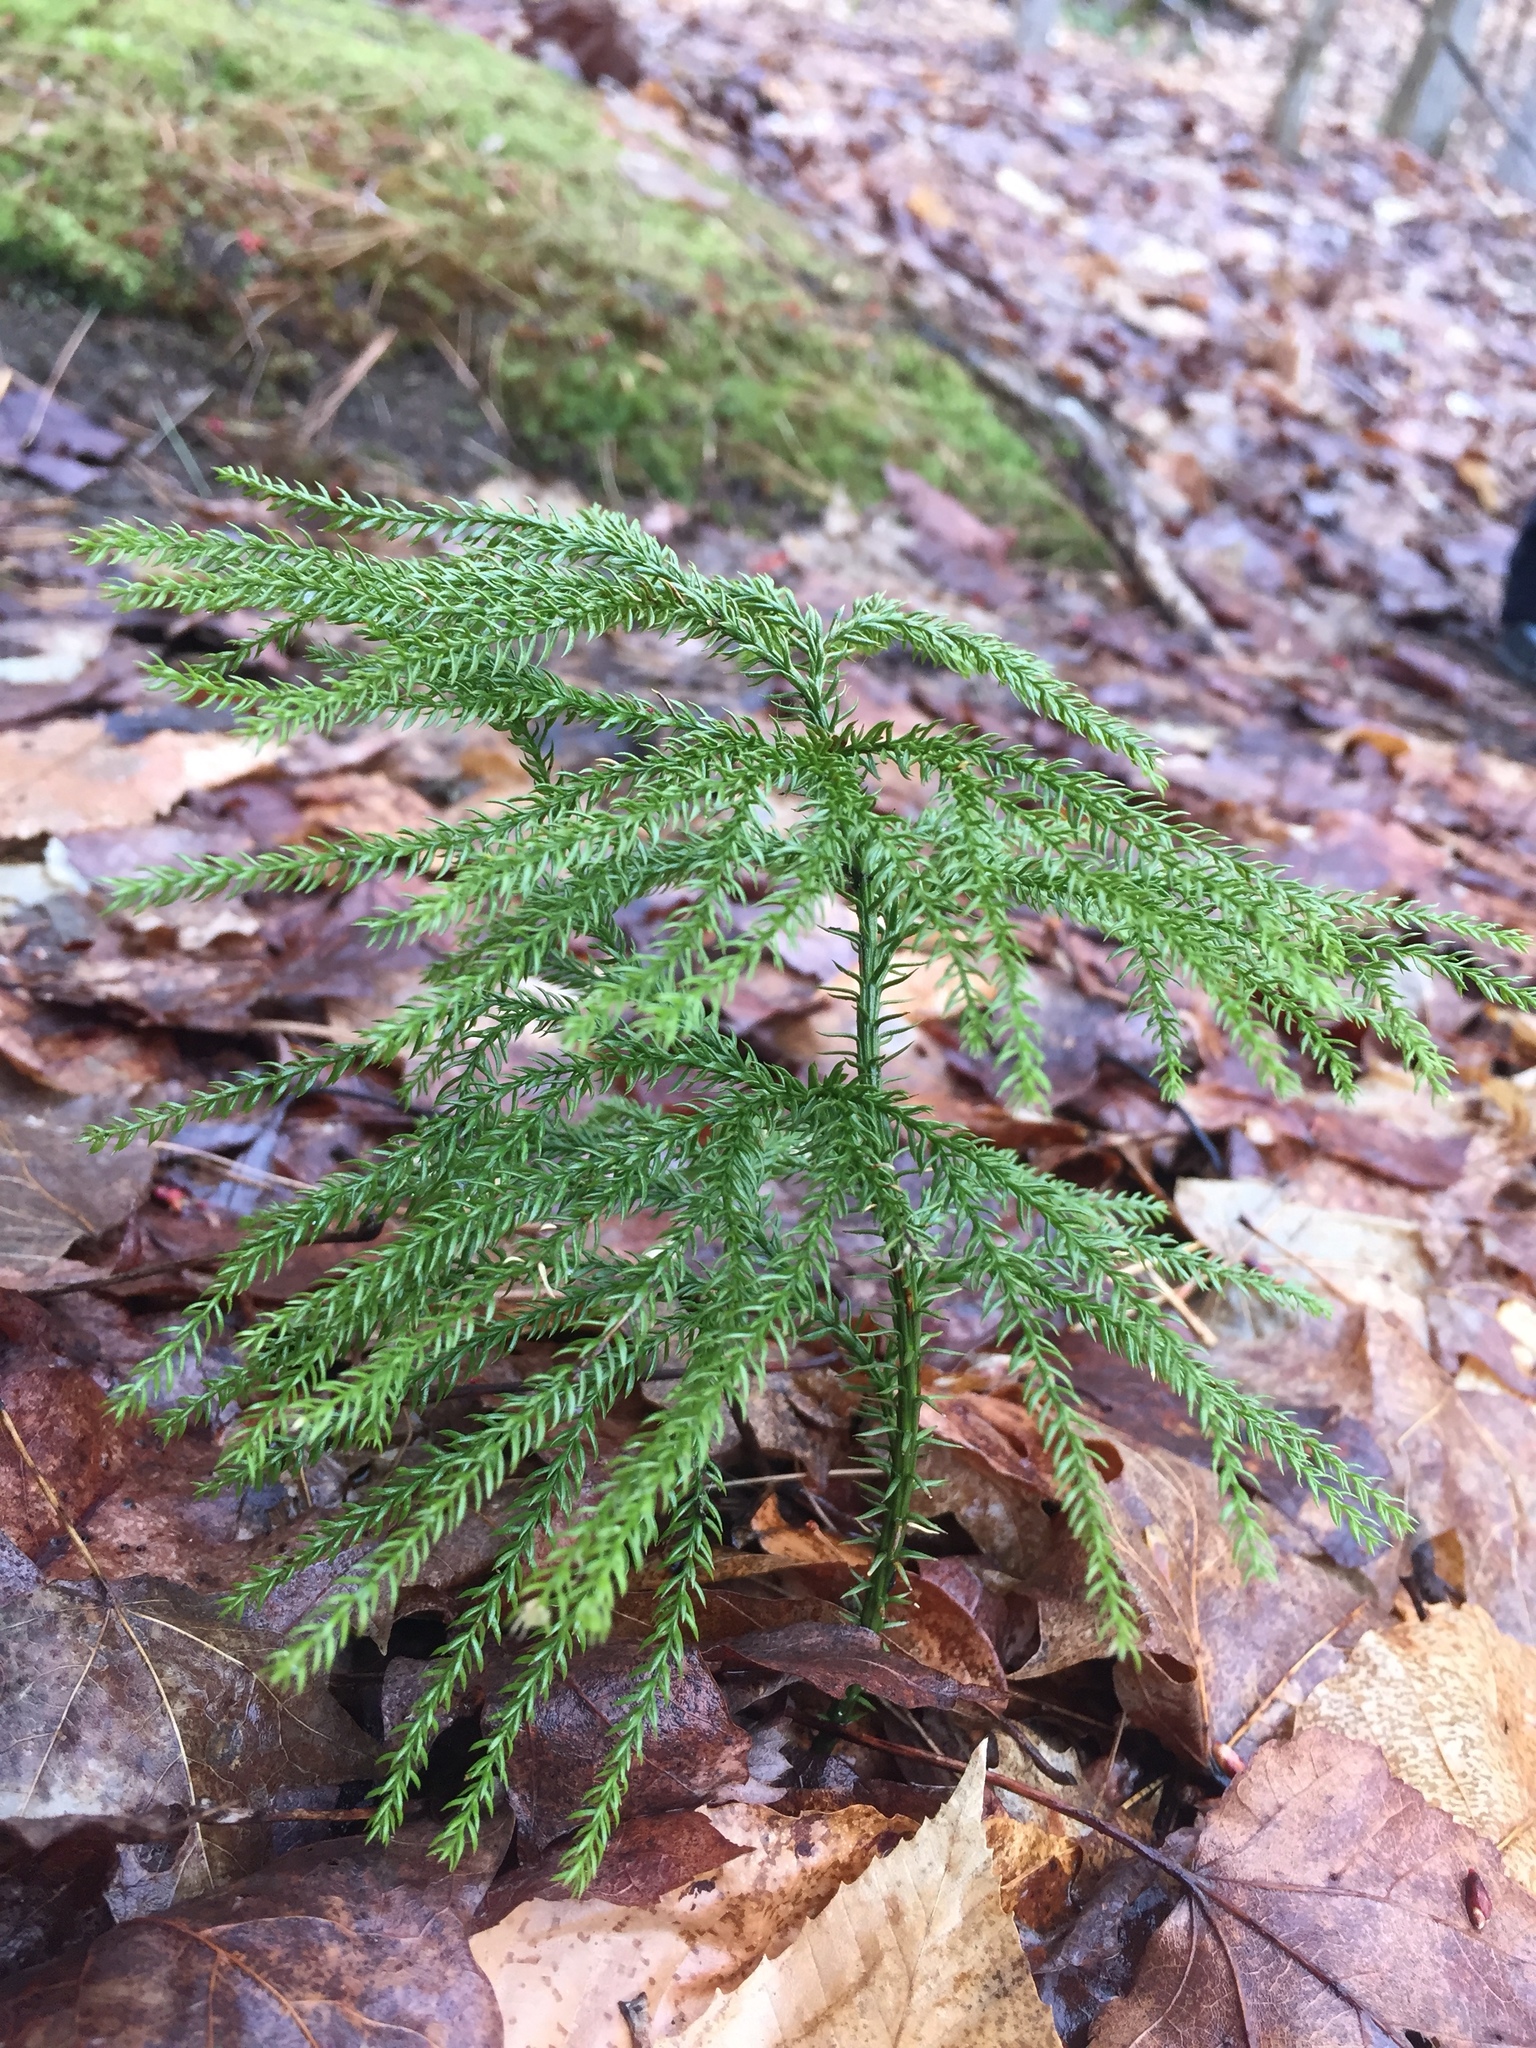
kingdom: Plantae
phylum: Tracheophyta
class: Lycopodiopsida
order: Lycopodiales
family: Lycopodiaceae
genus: Dendrolycopodium
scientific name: Dendrolycopodium dendroideum
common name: Northern tree-clubmoss
